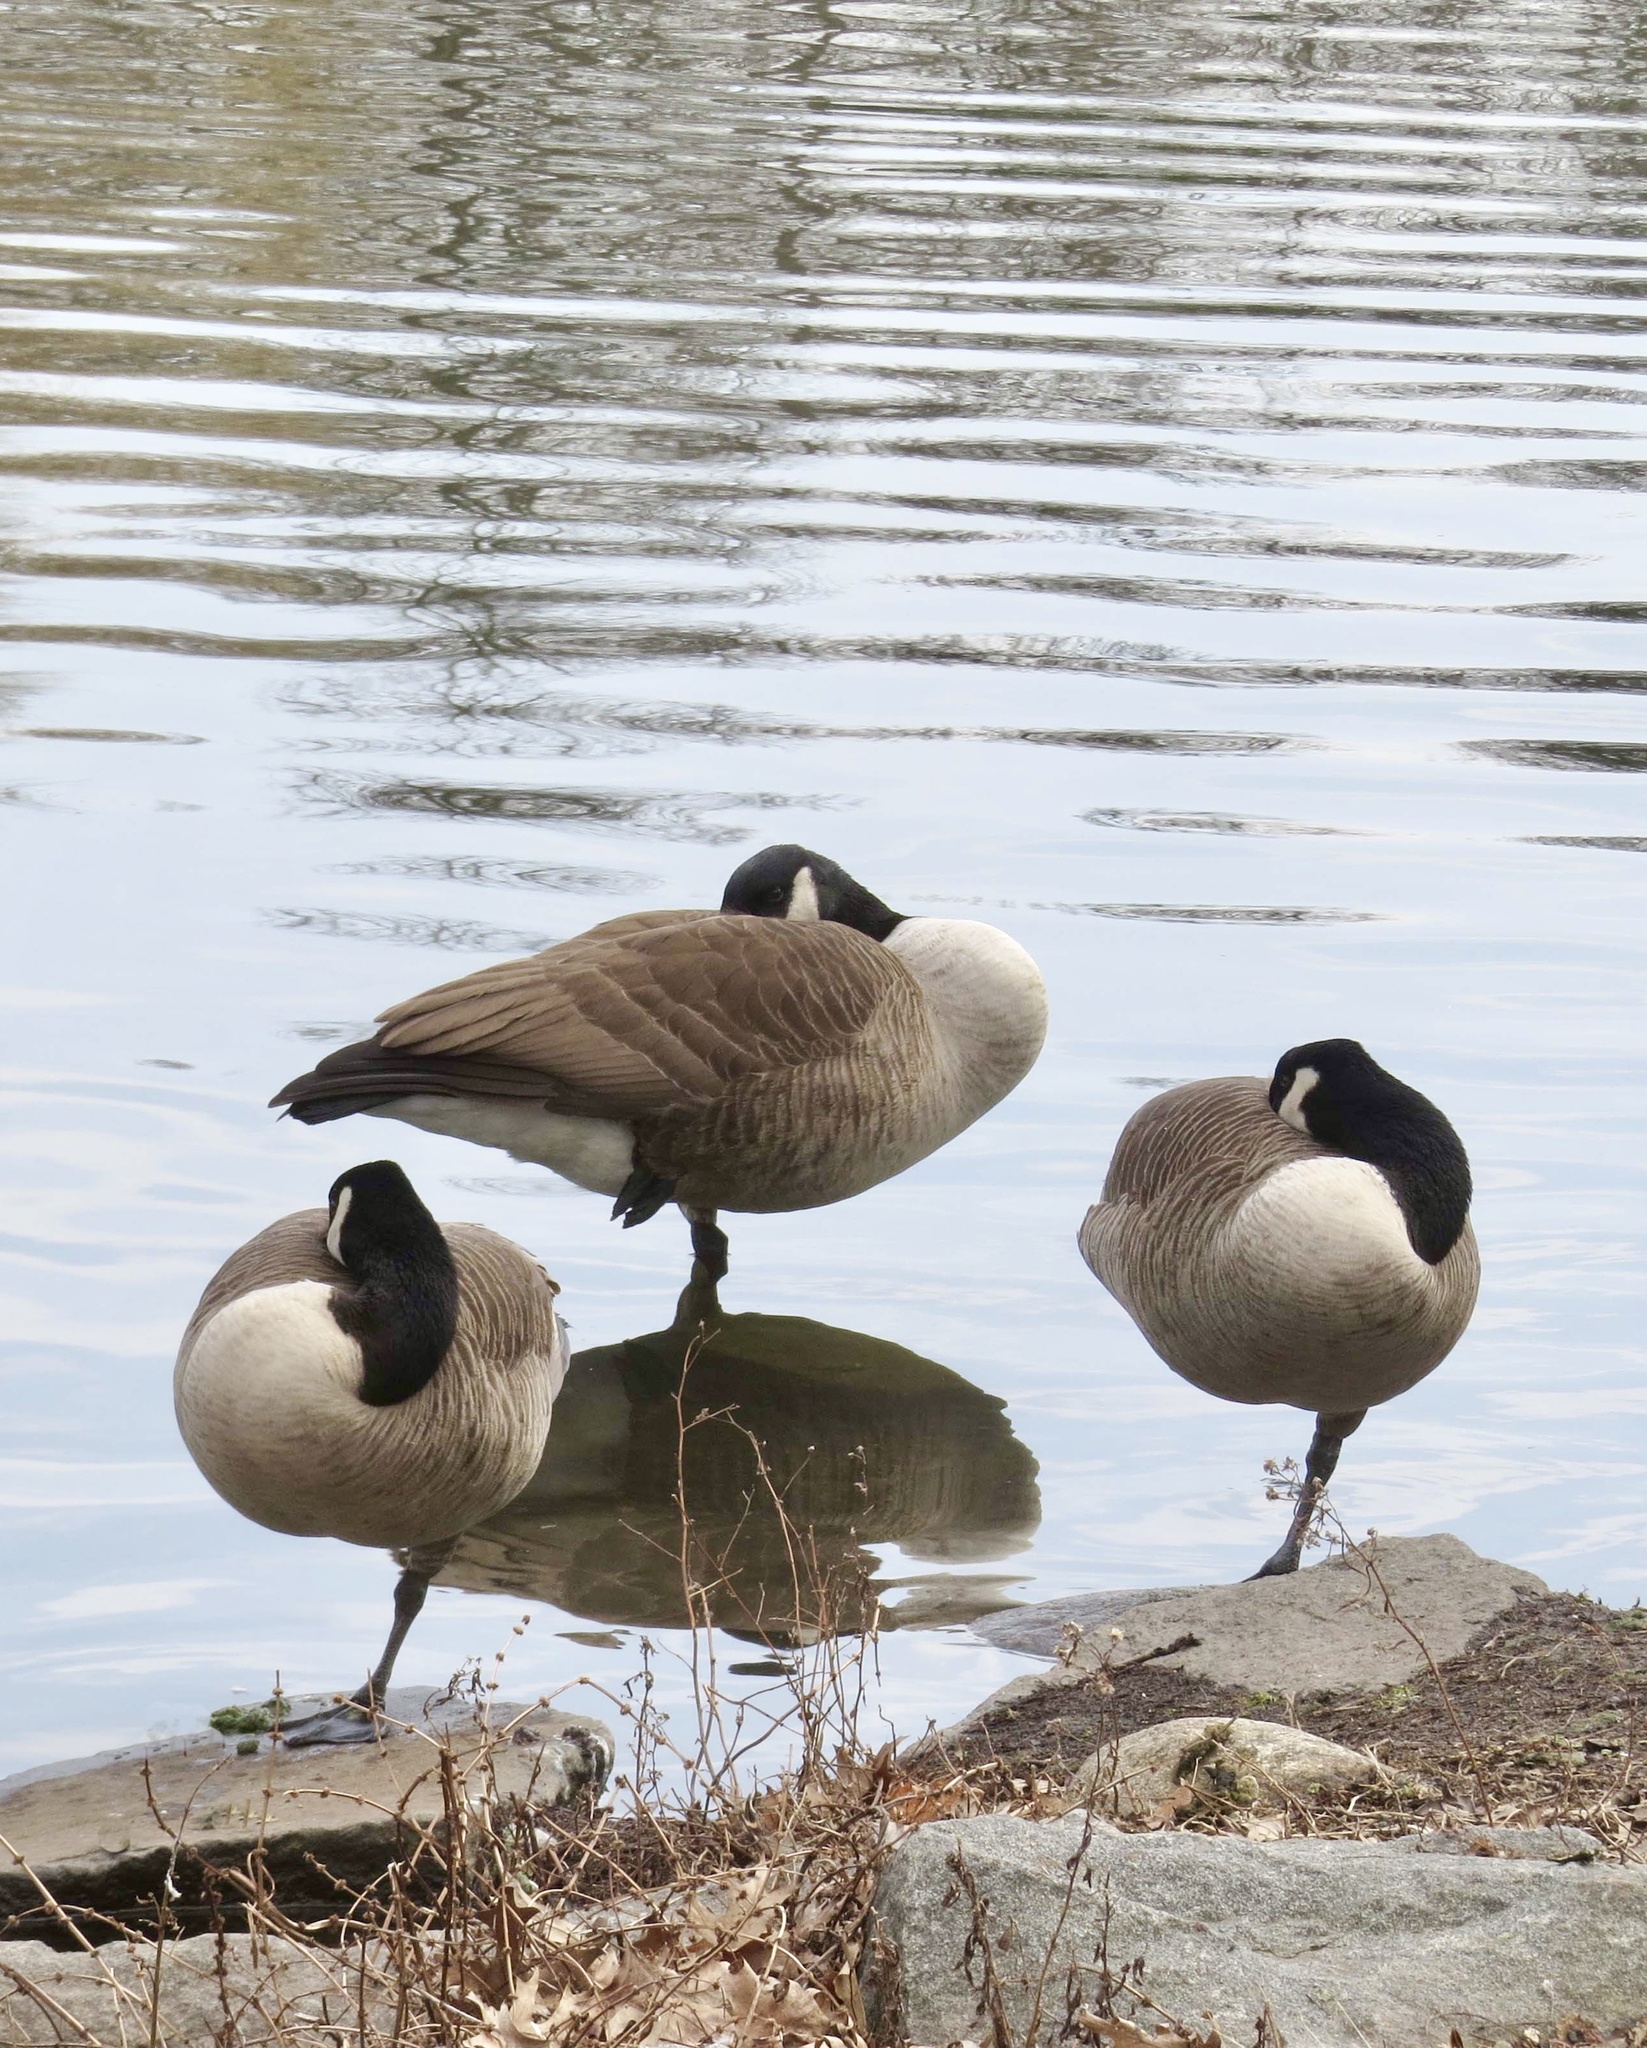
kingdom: Animalia
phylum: Chordata
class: Aves
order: Anseriformes
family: Anatidae
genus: Branta
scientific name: Branta canadensis
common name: Canada goose
